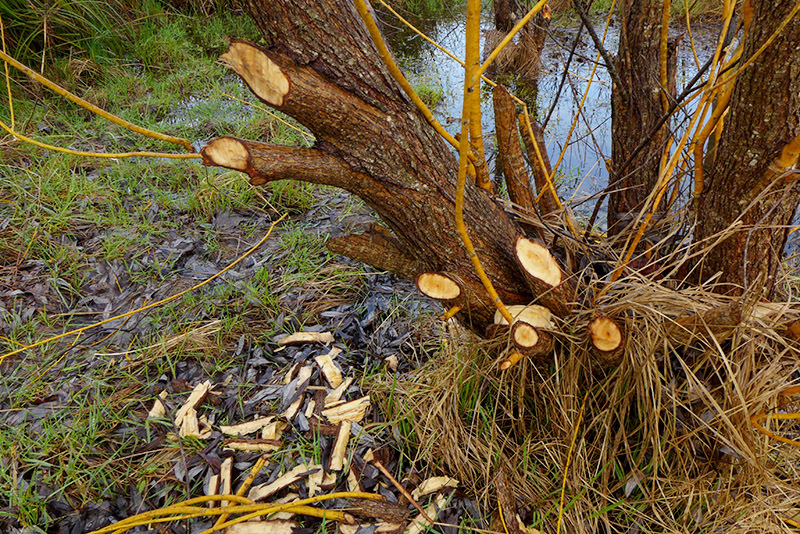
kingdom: Animalia
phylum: Chordata
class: Mammalia
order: Rodentia
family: Castoridae
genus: Castor
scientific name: Castor canadensis
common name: American beaver
